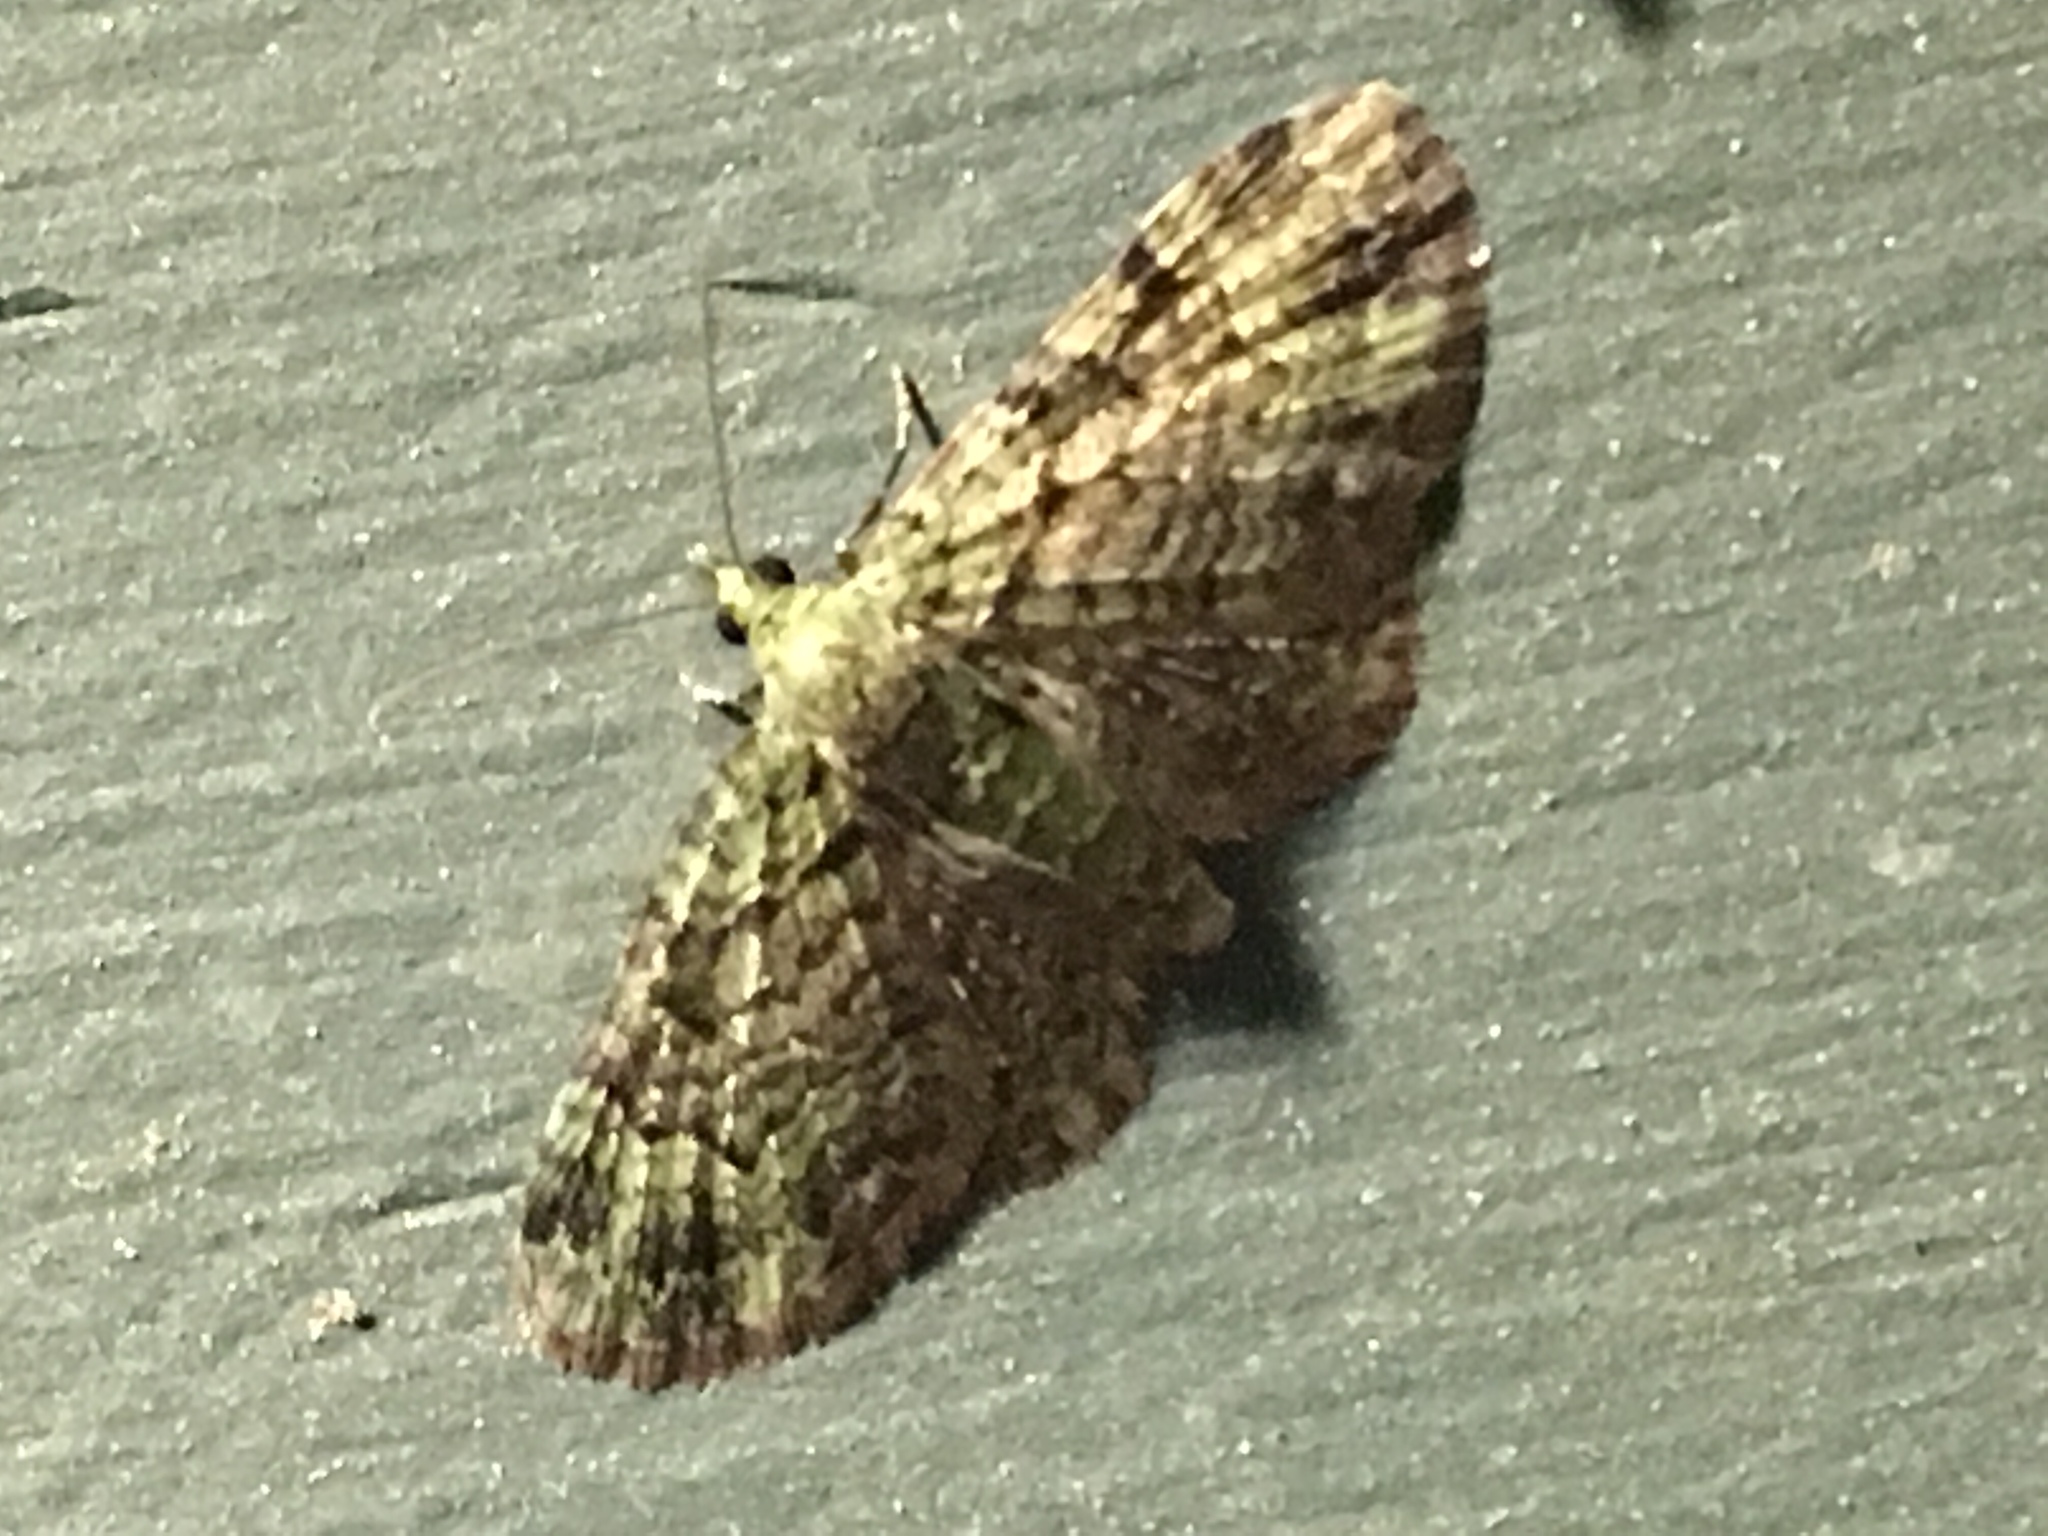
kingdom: Animalia
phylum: Arthropoda
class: Insecta
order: Lepidoptera
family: Geometridae
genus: Pasiphila
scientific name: Pasiphila rectangulata
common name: Green pug
